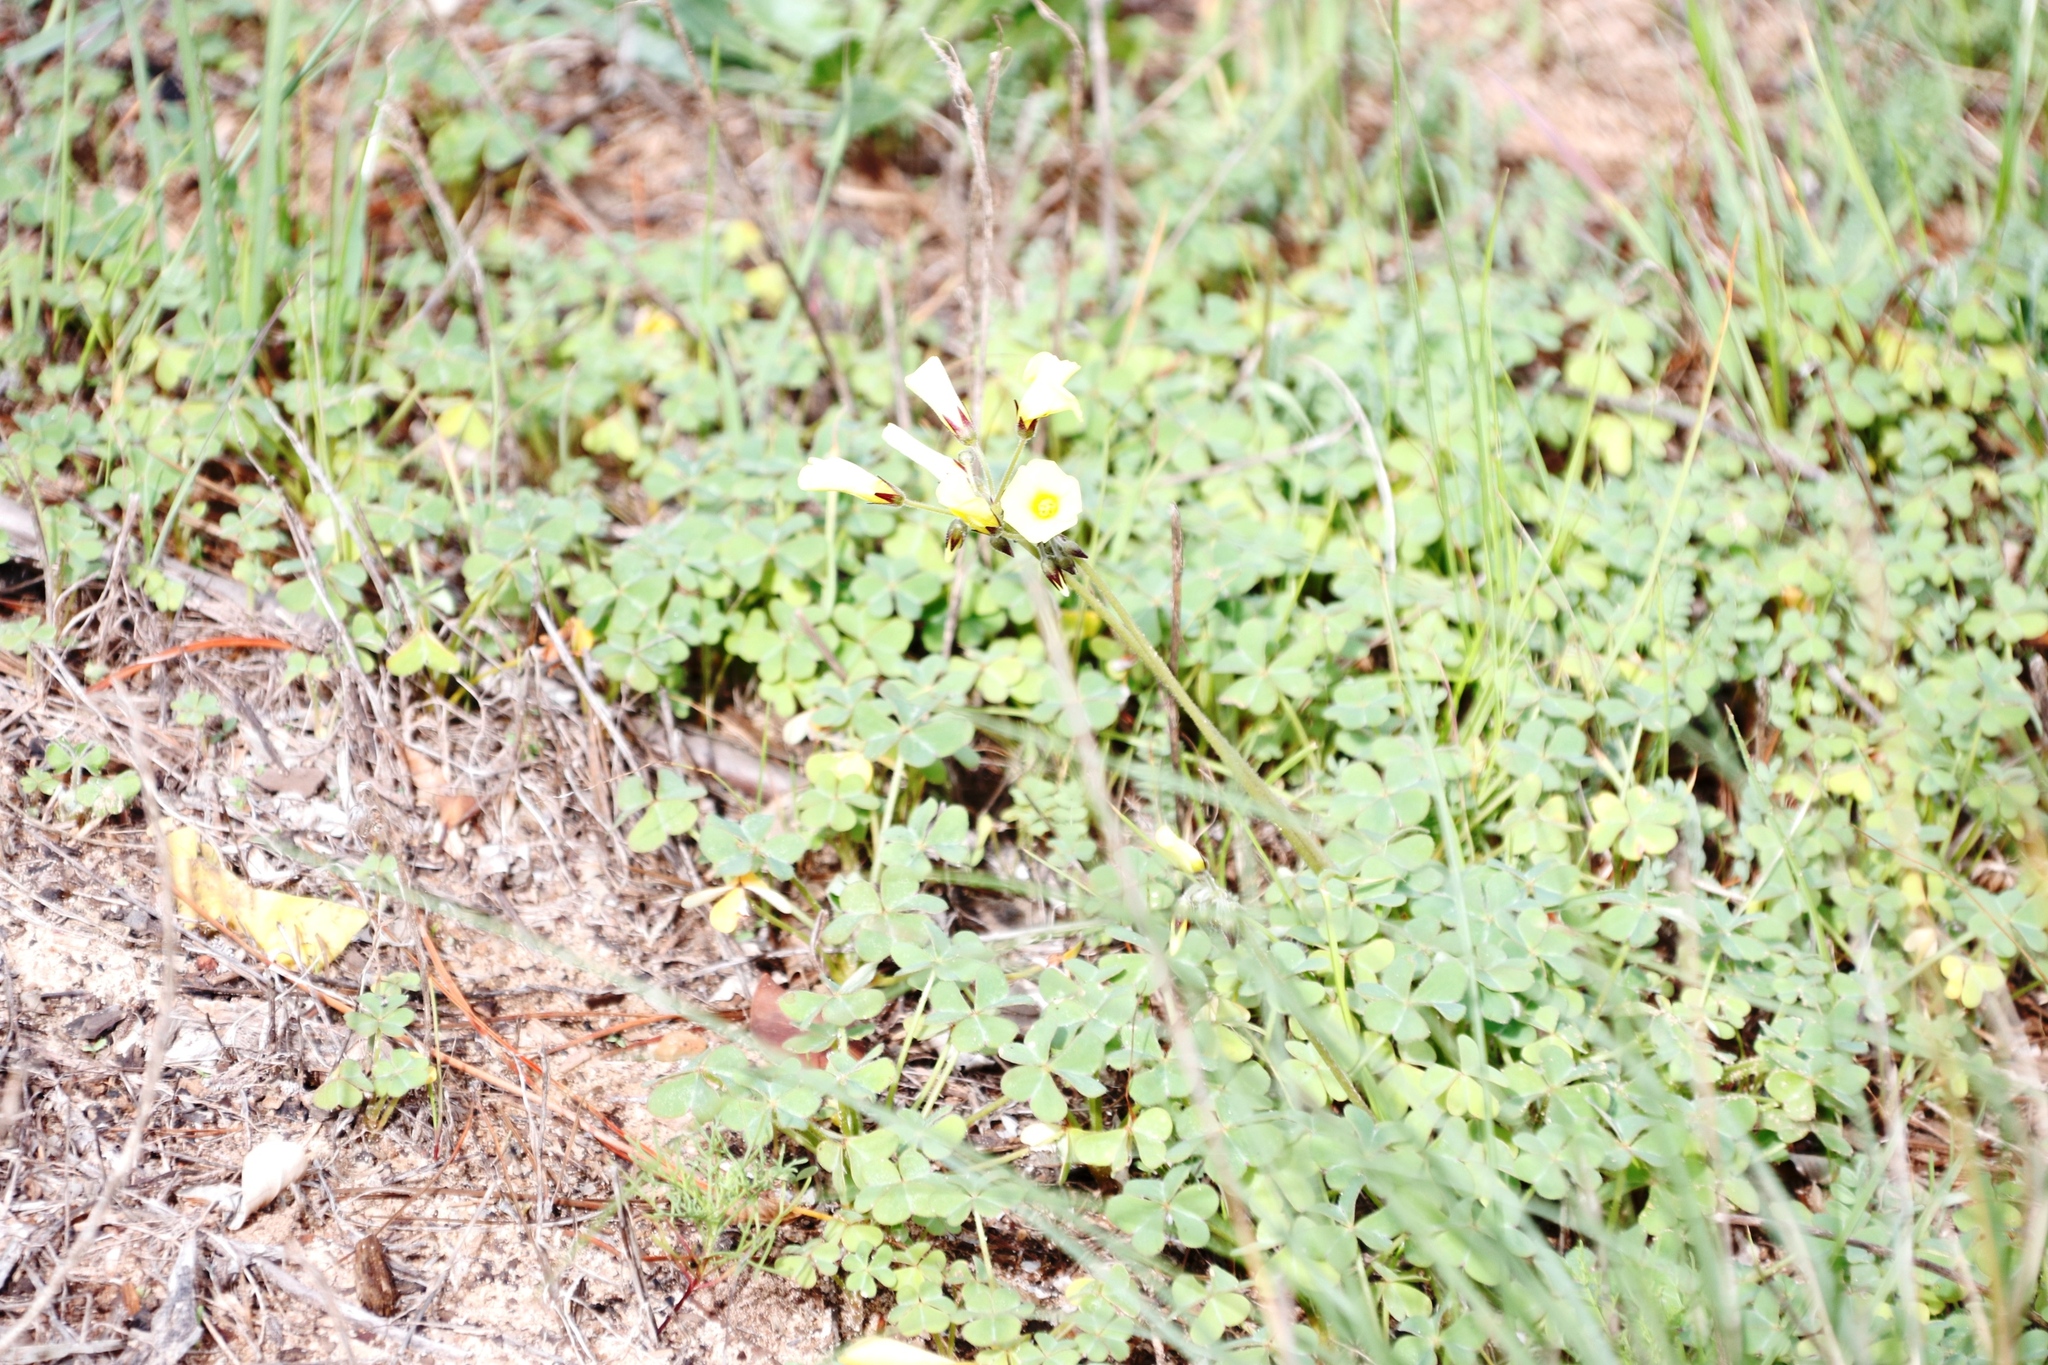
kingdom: Plantae
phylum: Tracheophyta
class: Magnoliopsida
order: Oxalidales
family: Oxalidaceae
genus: Oxalis
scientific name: Oxalis pes-caprae
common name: Bermuda-buttercup
